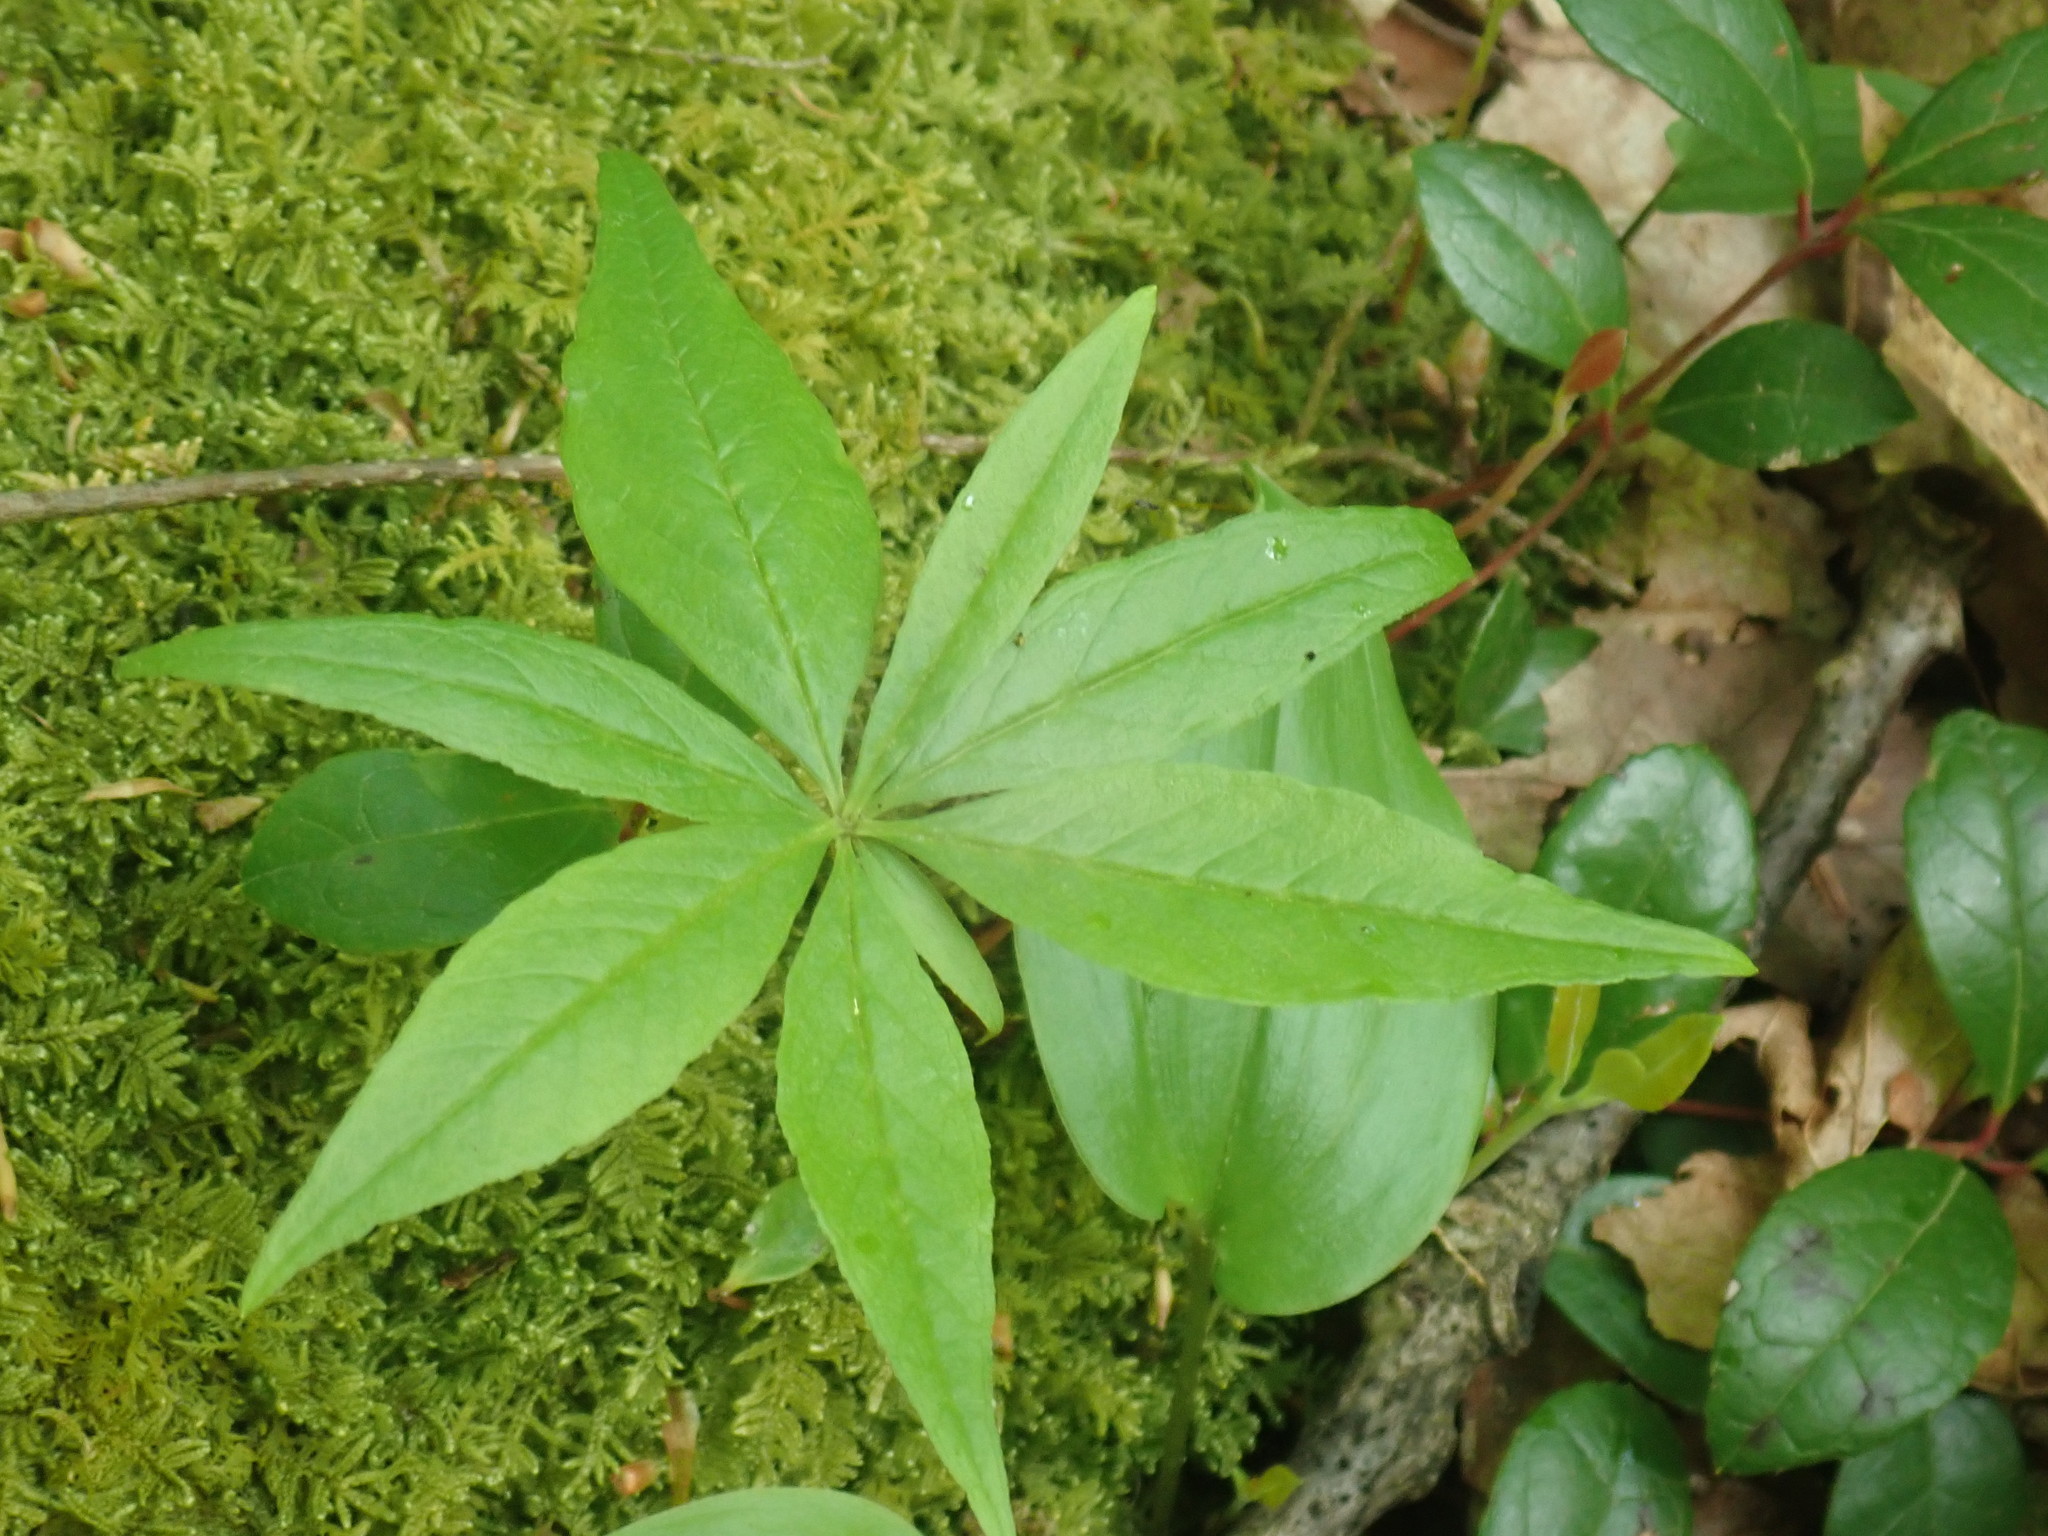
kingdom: Plantae
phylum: Tracheophyta
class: Magnoliopsida
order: Ericales
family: Primulaceae
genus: Lysimachia
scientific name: Lysimachia borealis
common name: American starflower
